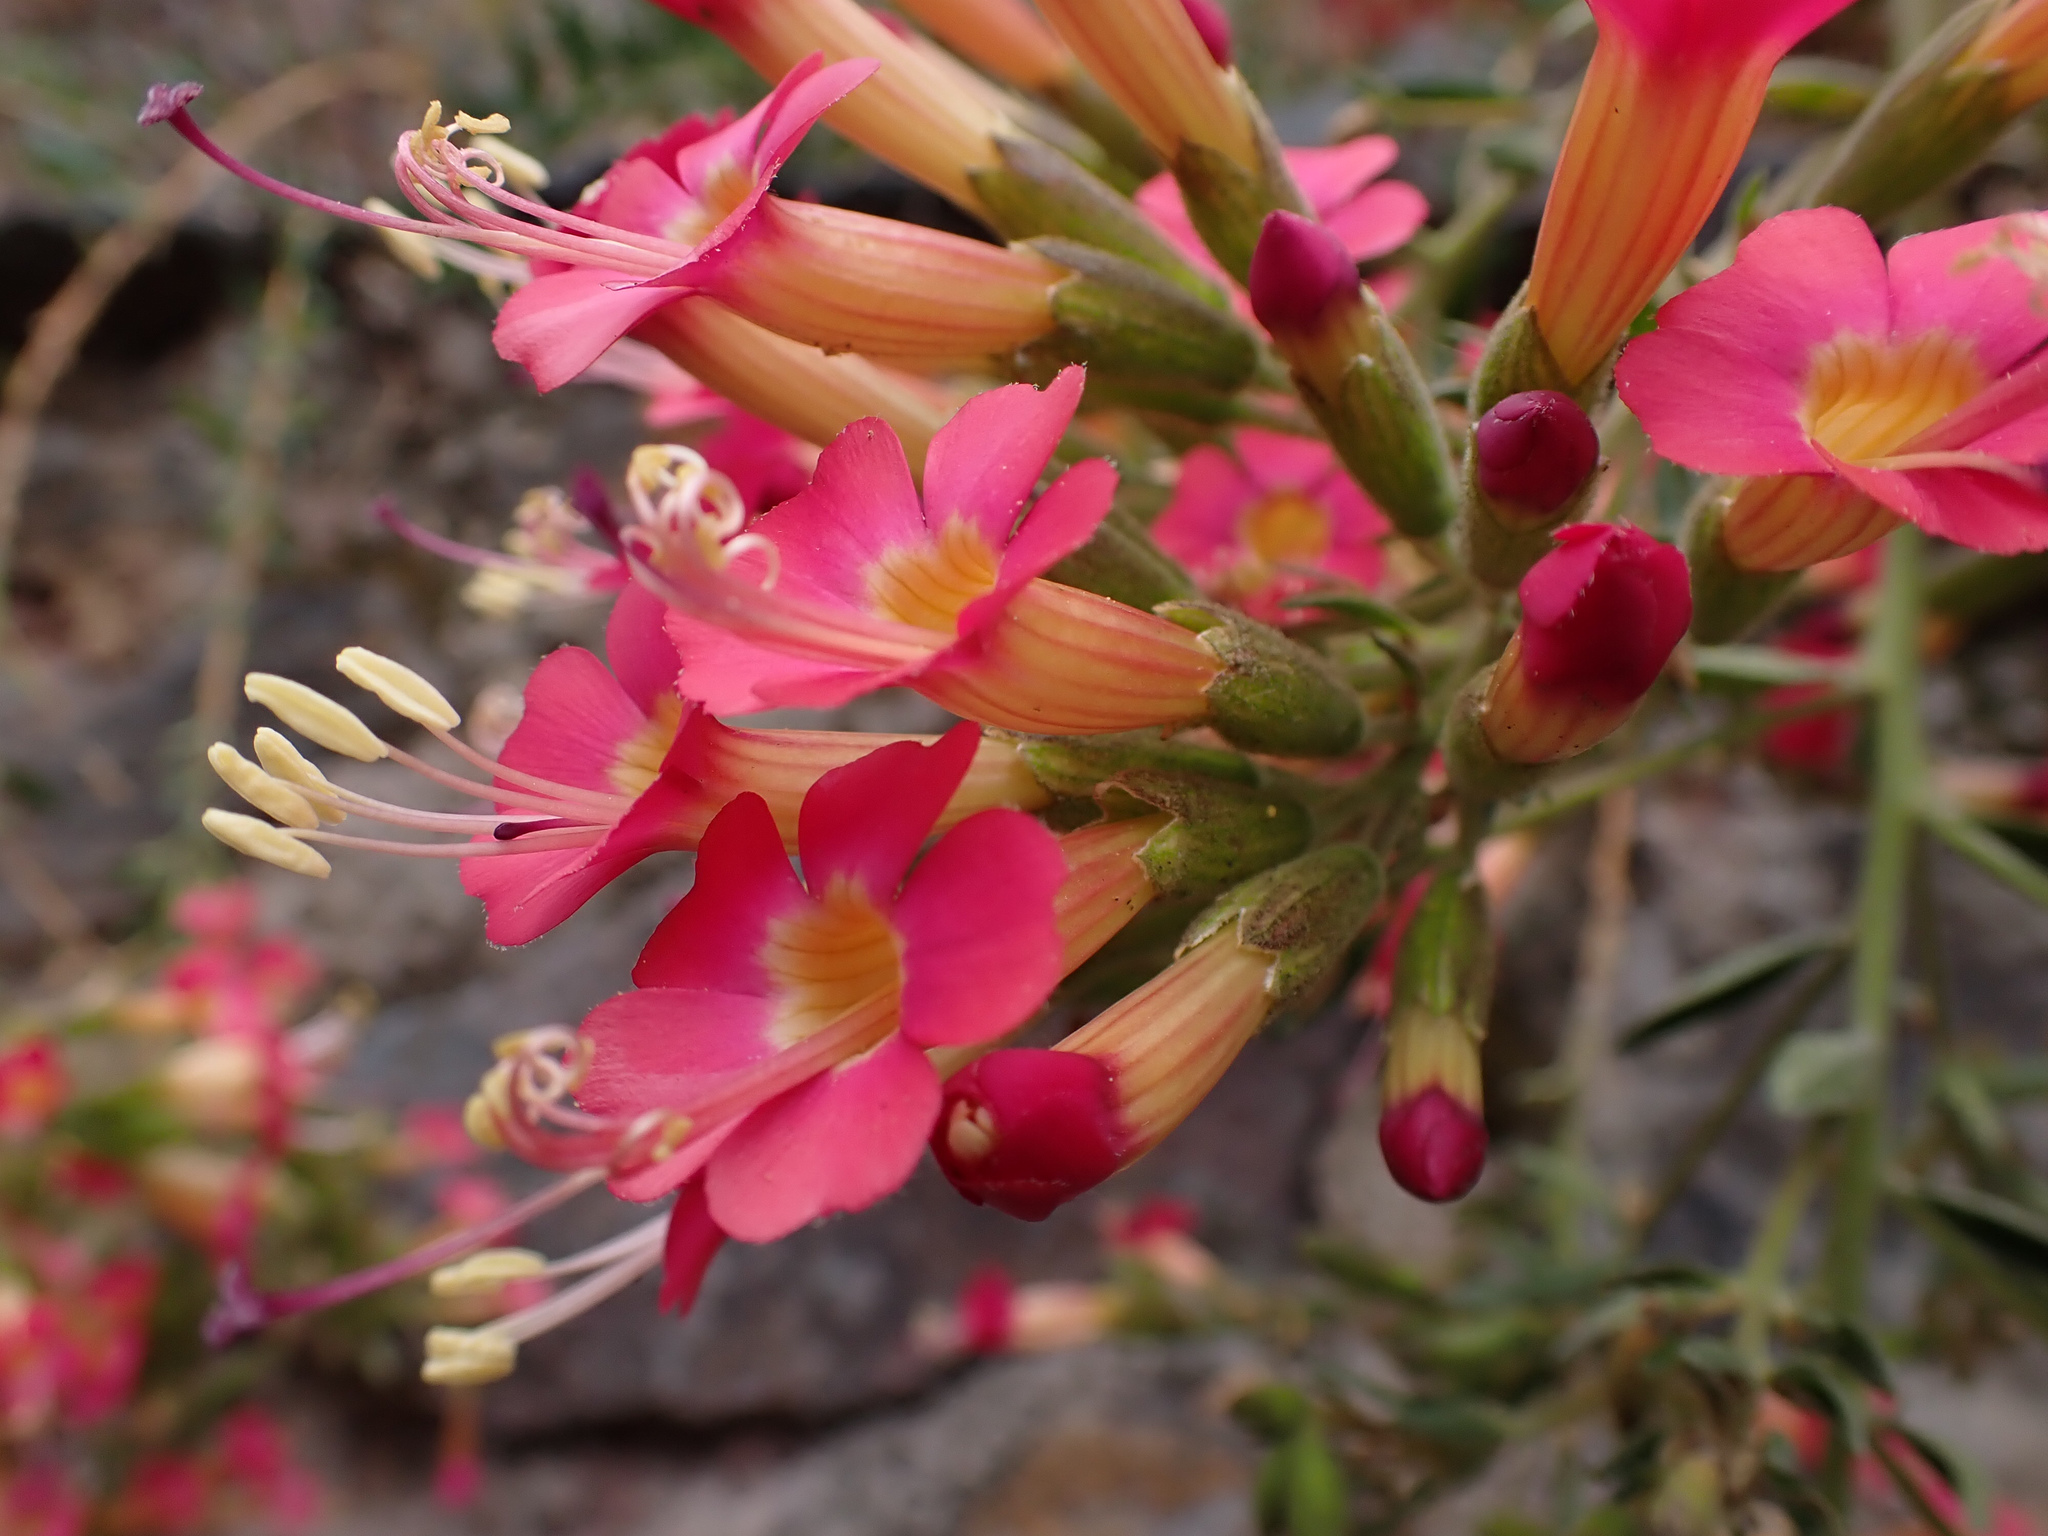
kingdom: Plantae
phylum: Tracheophyta
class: Magnoliopsida
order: Ericales
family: Polemoniaceae
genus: Cantua
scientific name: Cantua cuzcoensis
